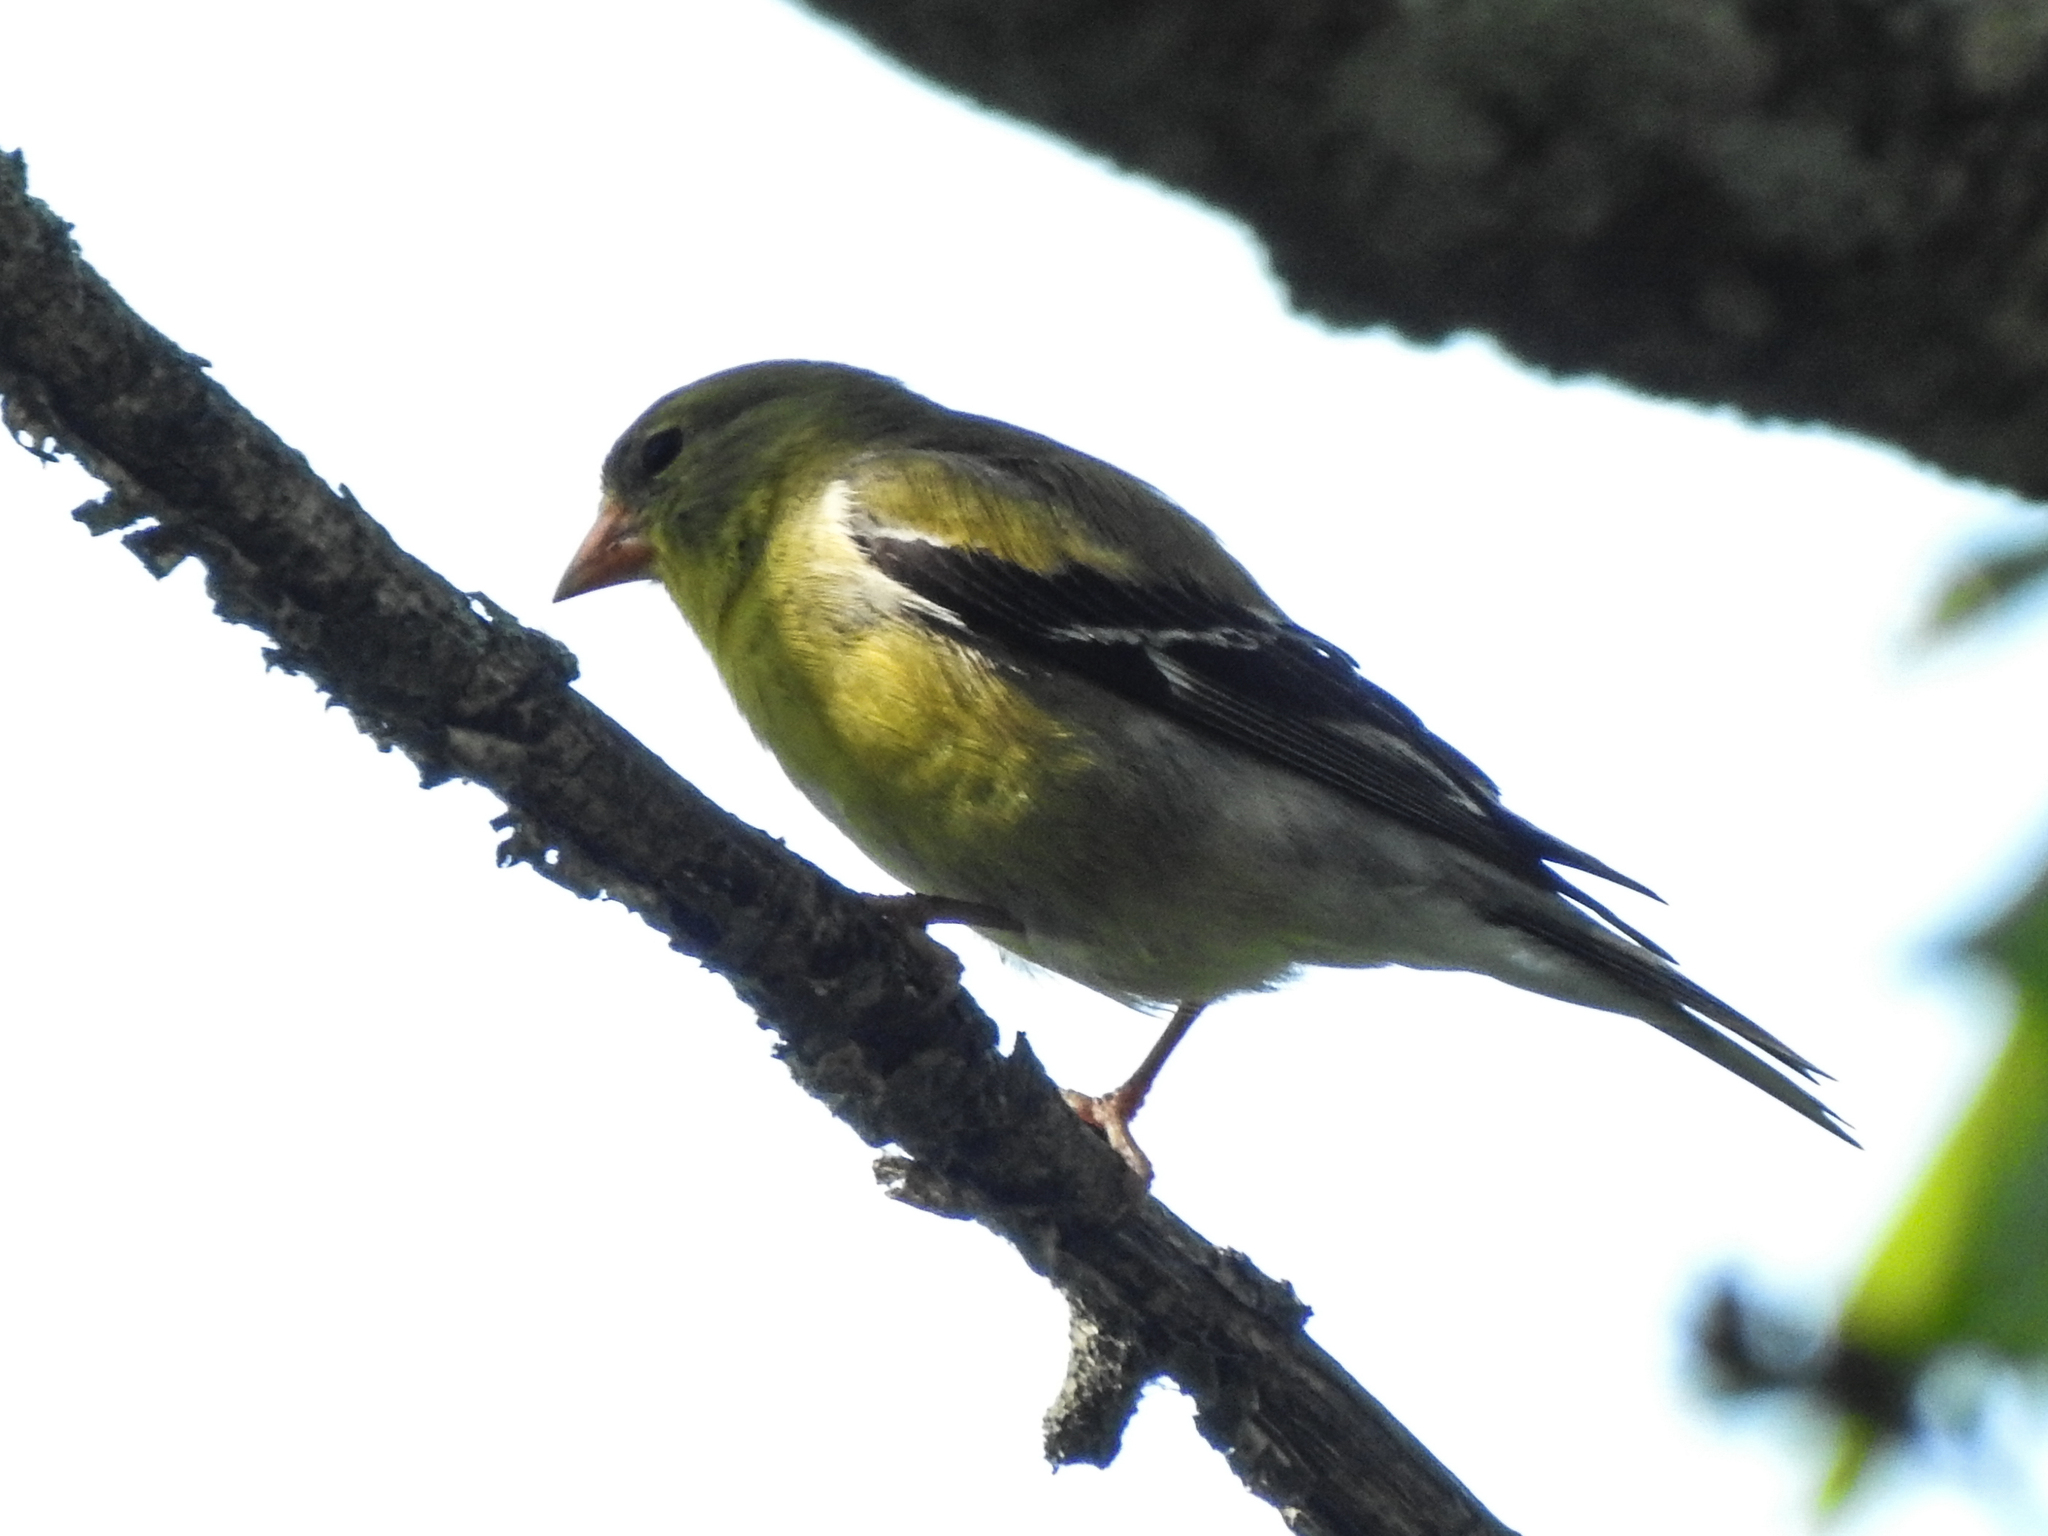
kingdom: Animalia
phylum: Chordata
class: Aves
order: Passeriformes
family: Fringillidae
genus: Spinus
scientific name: Spinus tristis
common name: American goldfinch
